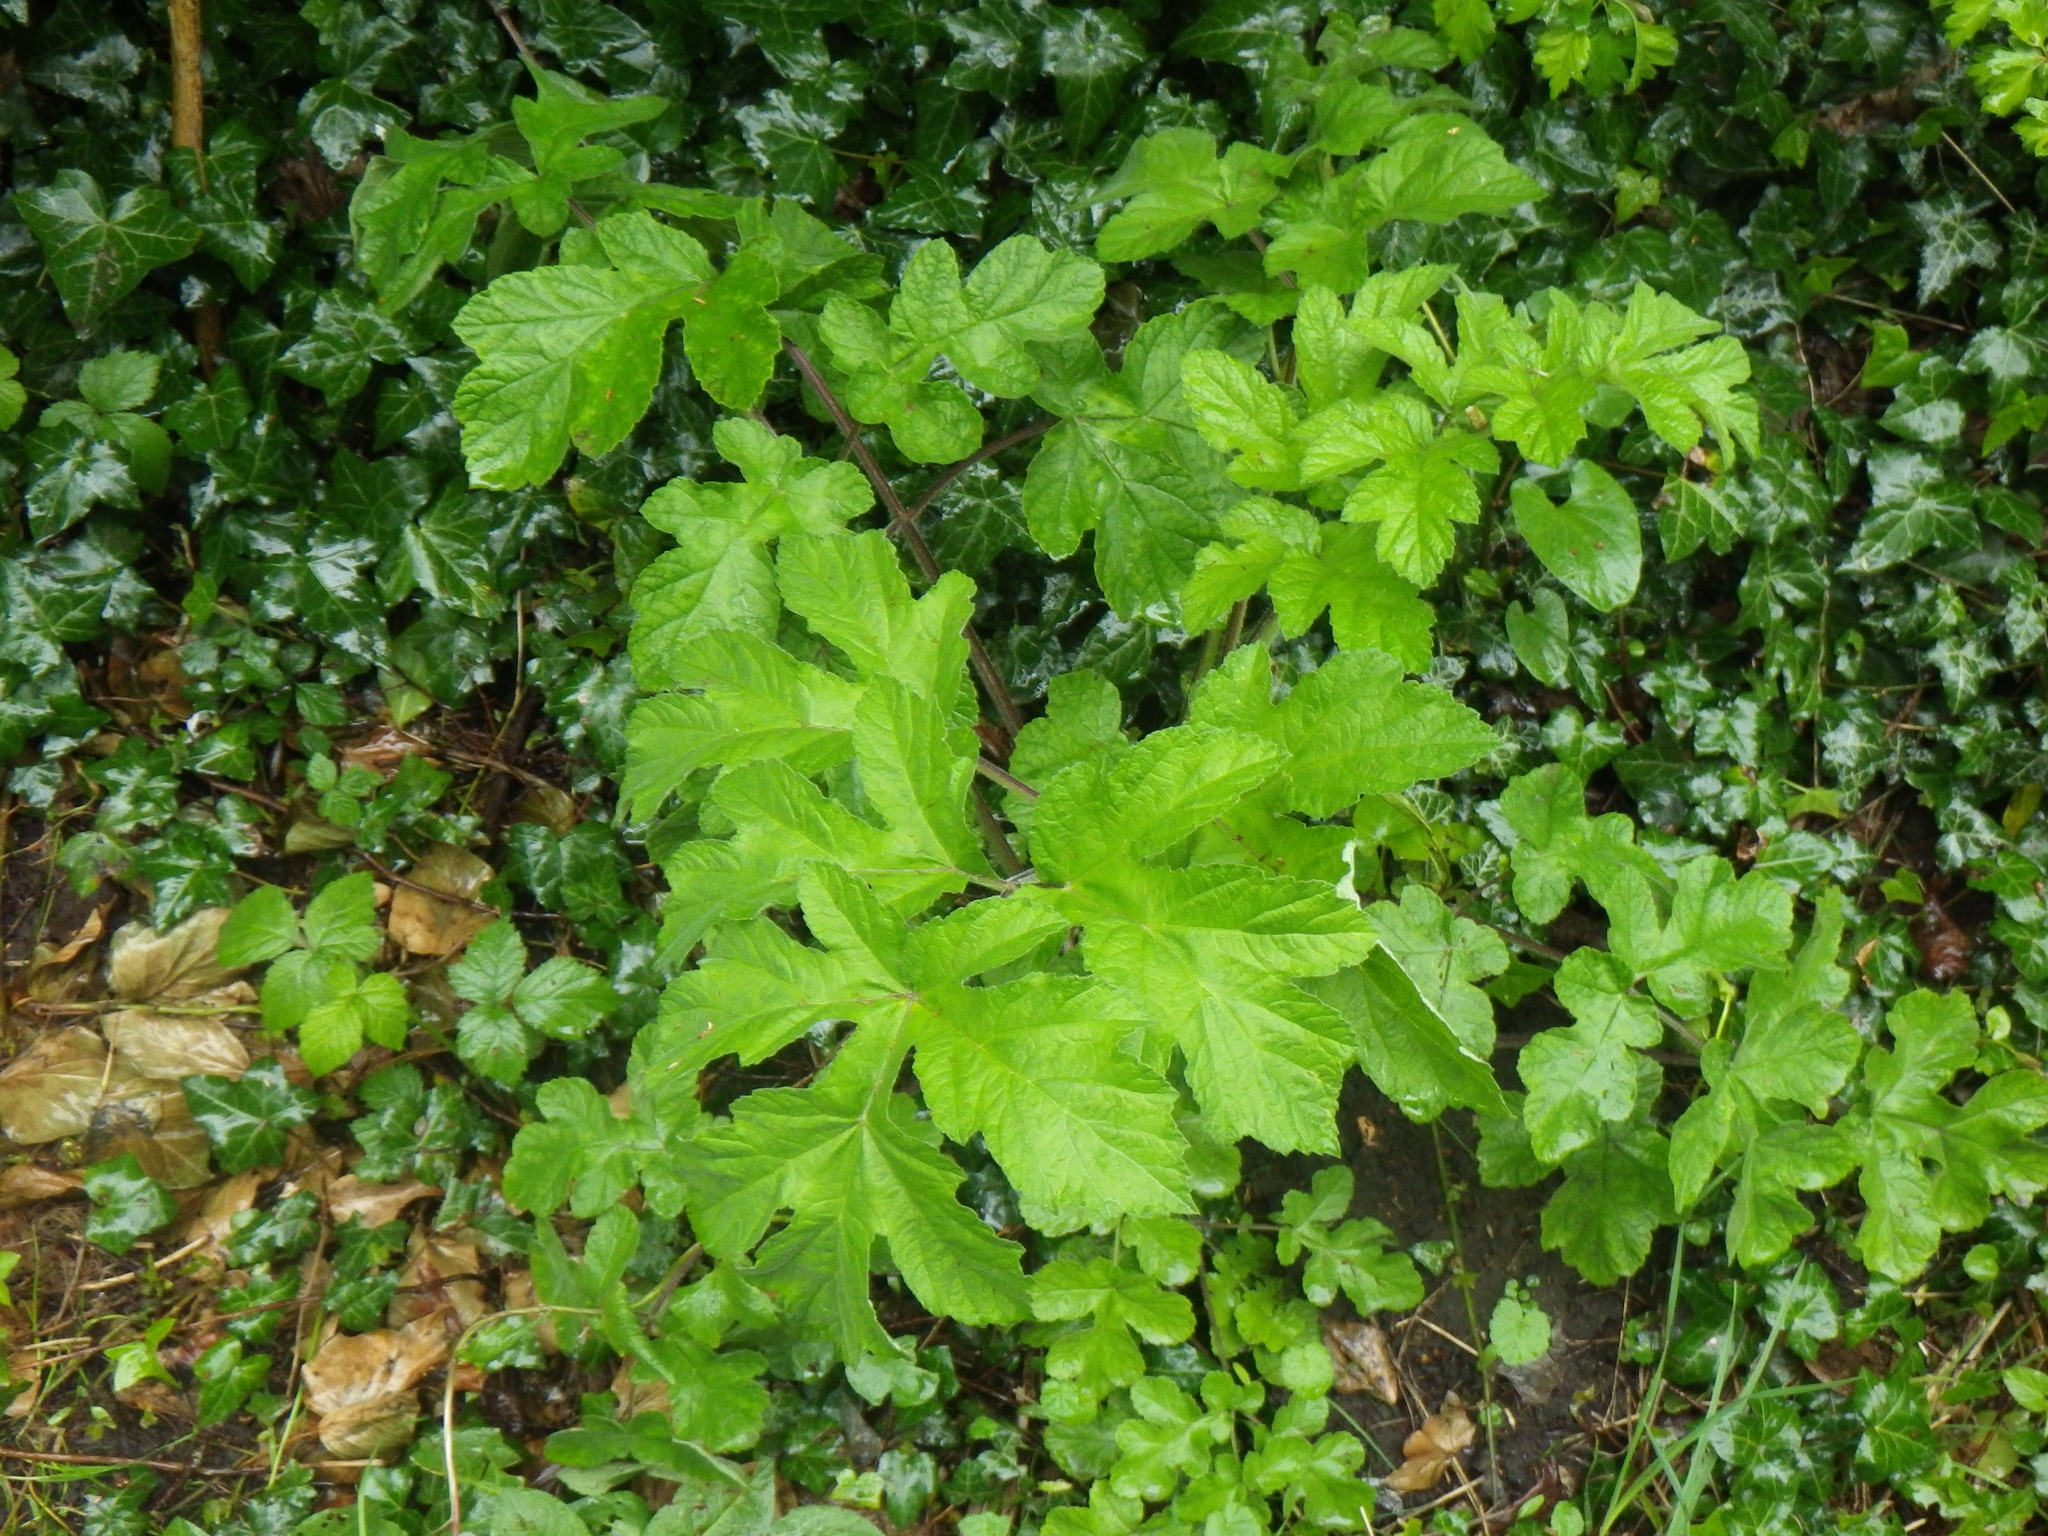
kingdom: Plantae
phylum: Tracheophyta
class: Magnoliopsida
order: Apiales
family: Apiaceae
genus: Heracleum
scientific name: Heracleum sphondylium
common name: Hogweed
